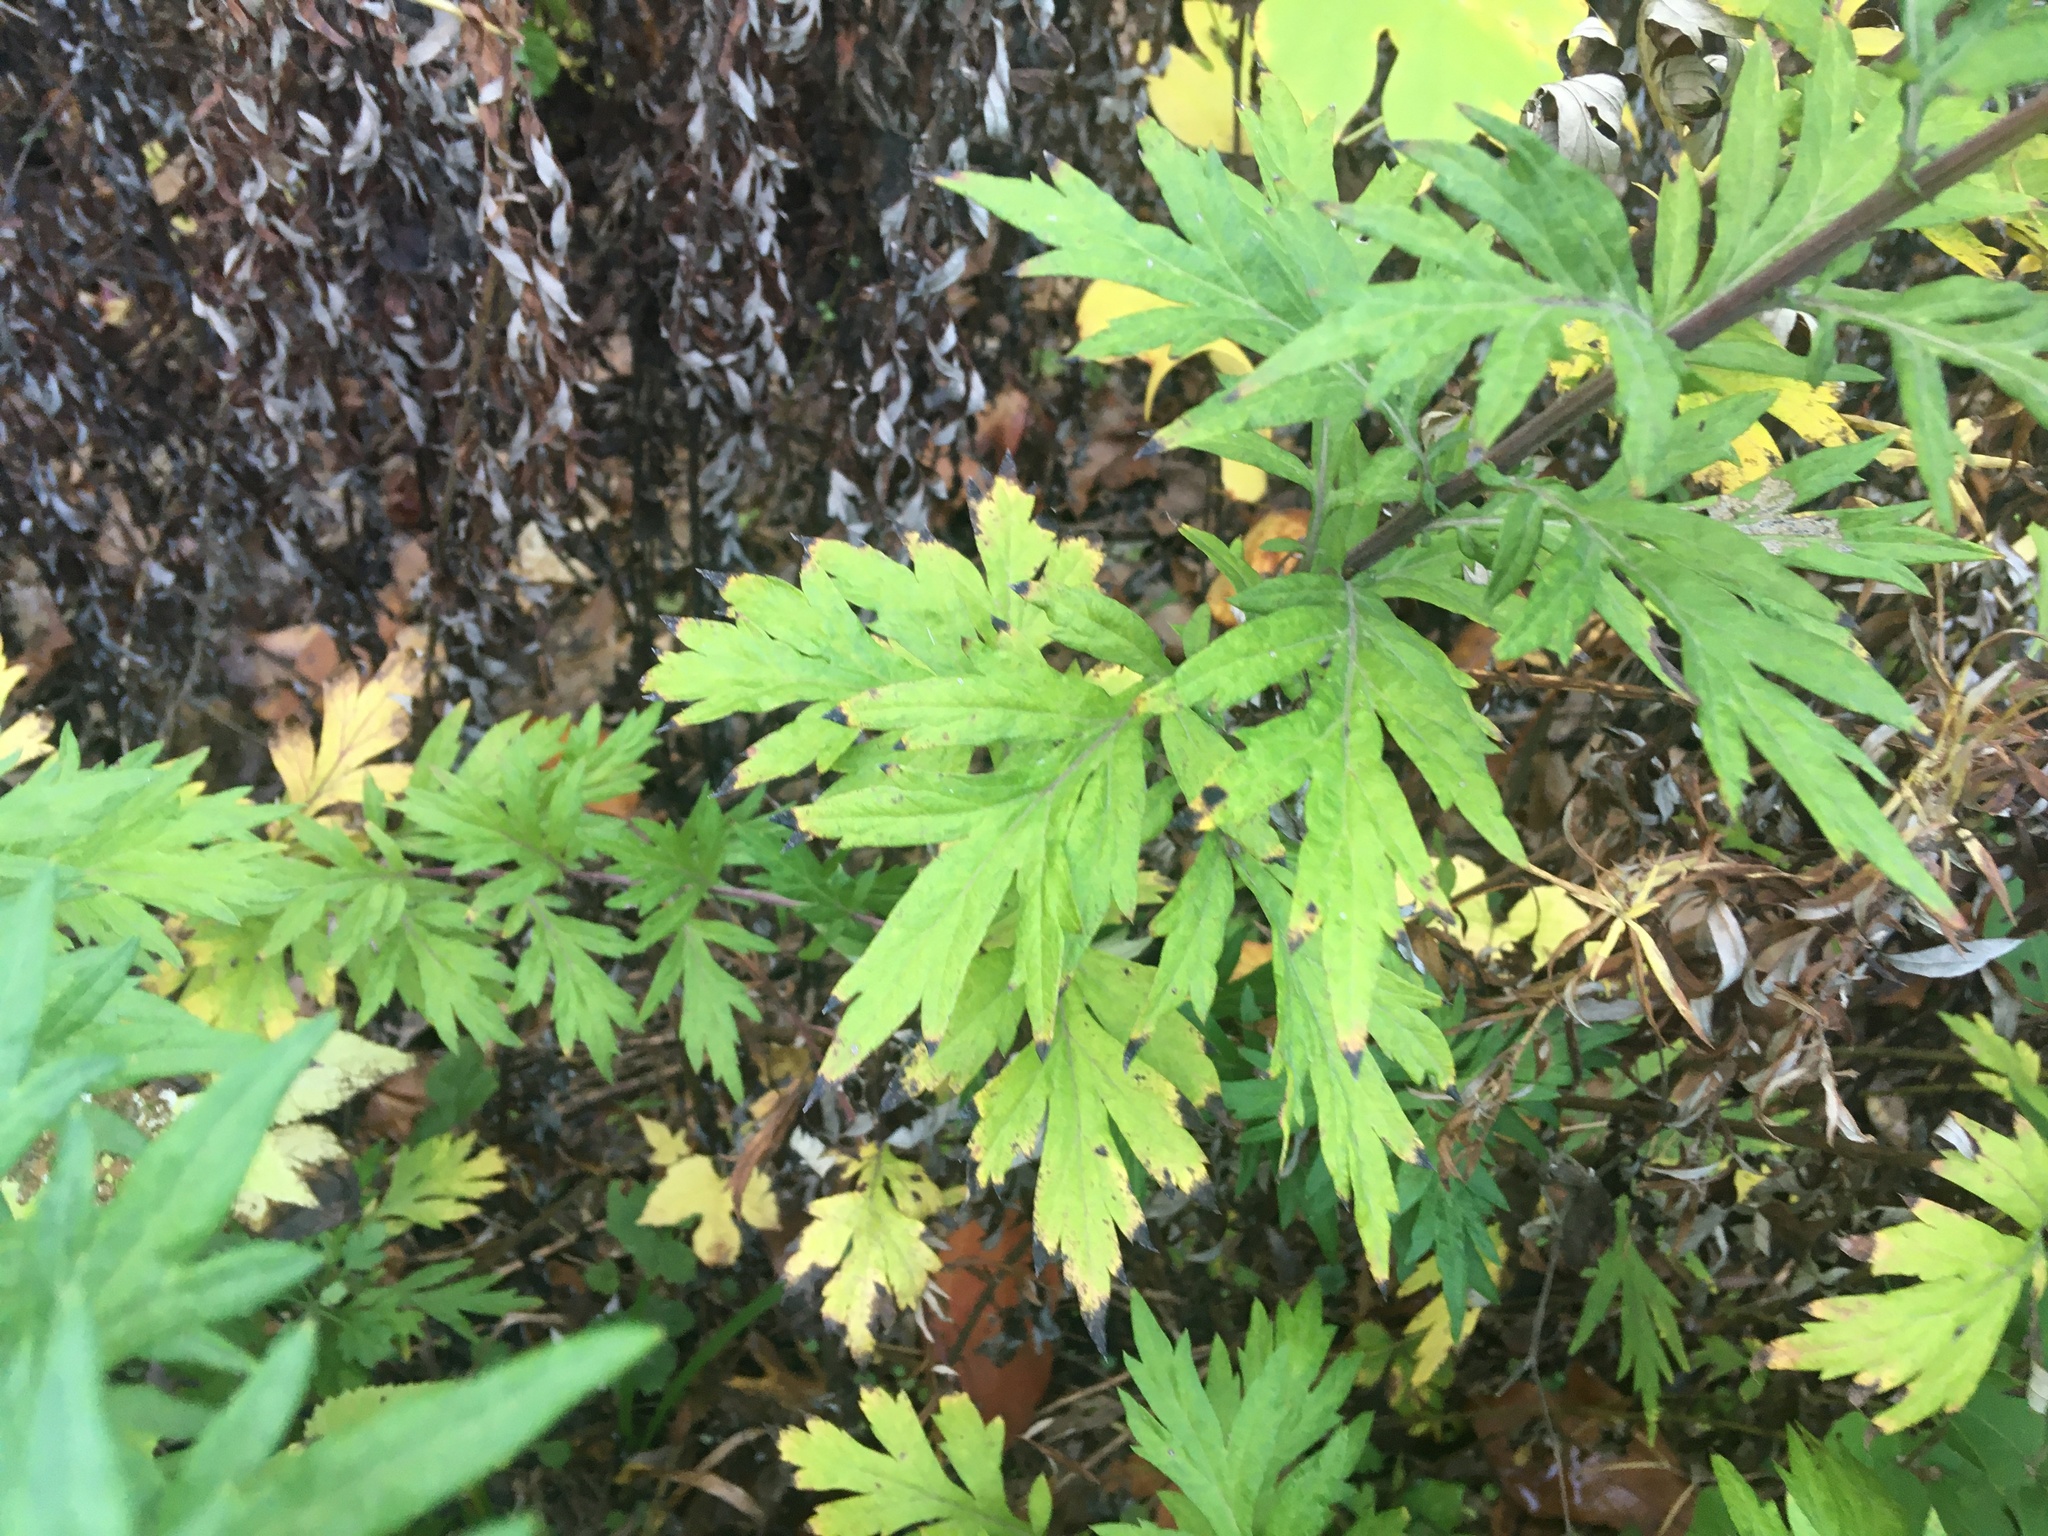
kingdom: Plantae
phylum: Tracheophyta
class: Magnoliopsida
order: Asterales
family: Asteraceae
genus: Artemisia
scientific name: Artemisia vulgaris
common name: Mugwort
